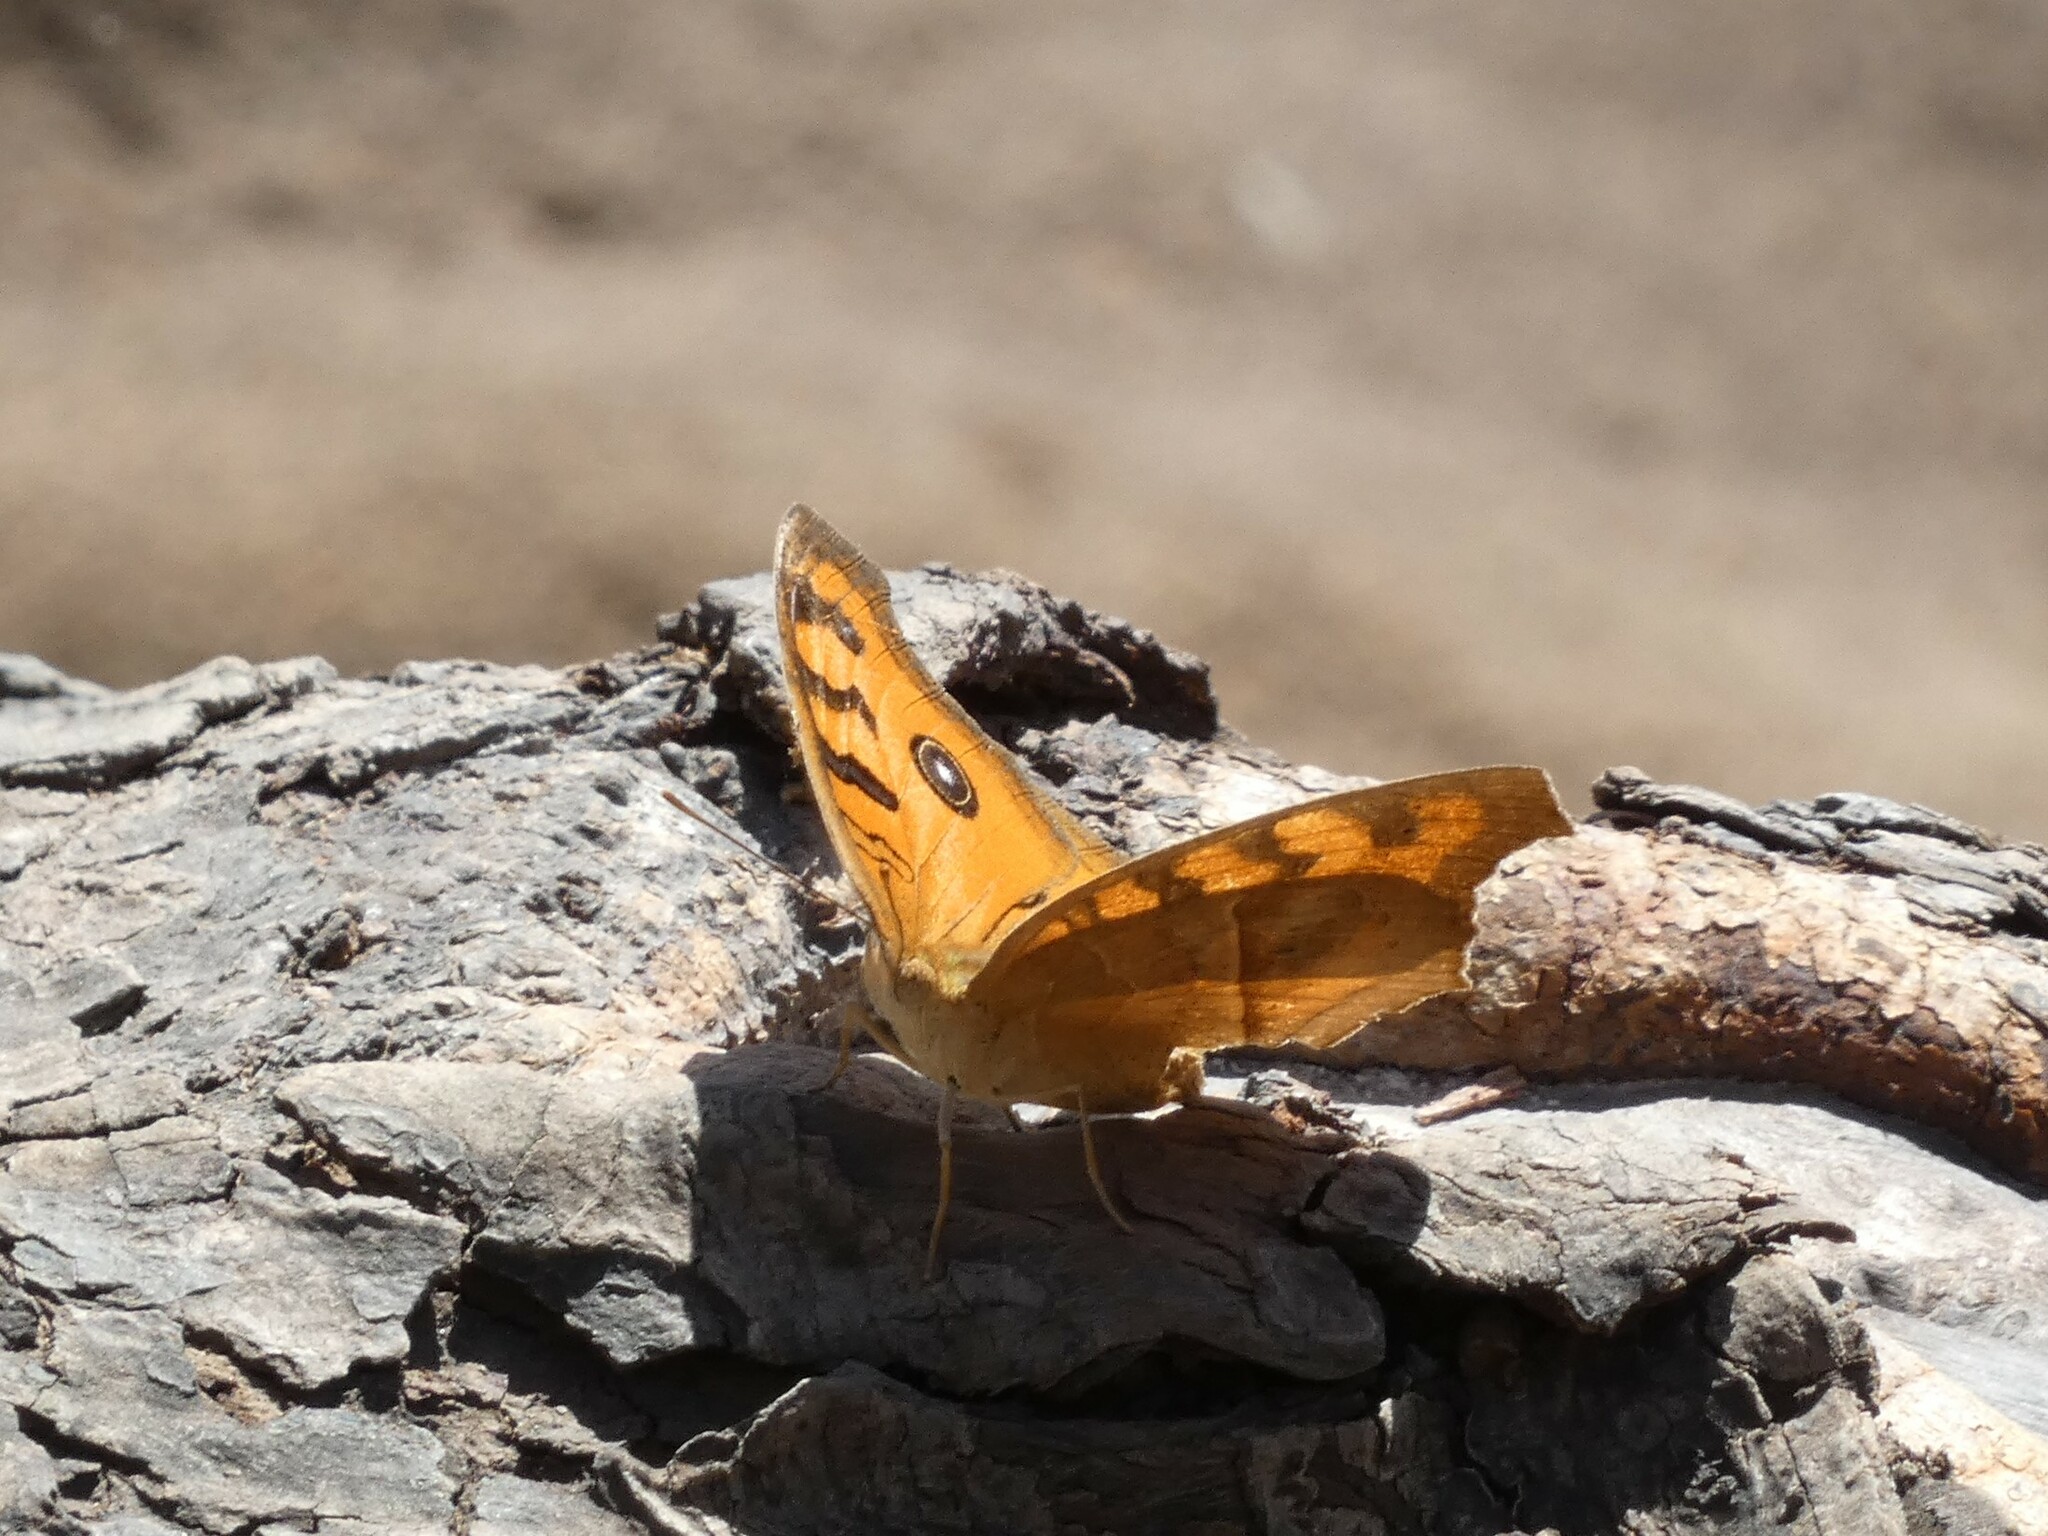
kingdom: Animalia
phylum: Arthropoda
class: Insecta
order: Lepidoptera
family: Nymphalidae
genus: Junonia
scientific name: Junonia almana
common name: Peacock pansy
